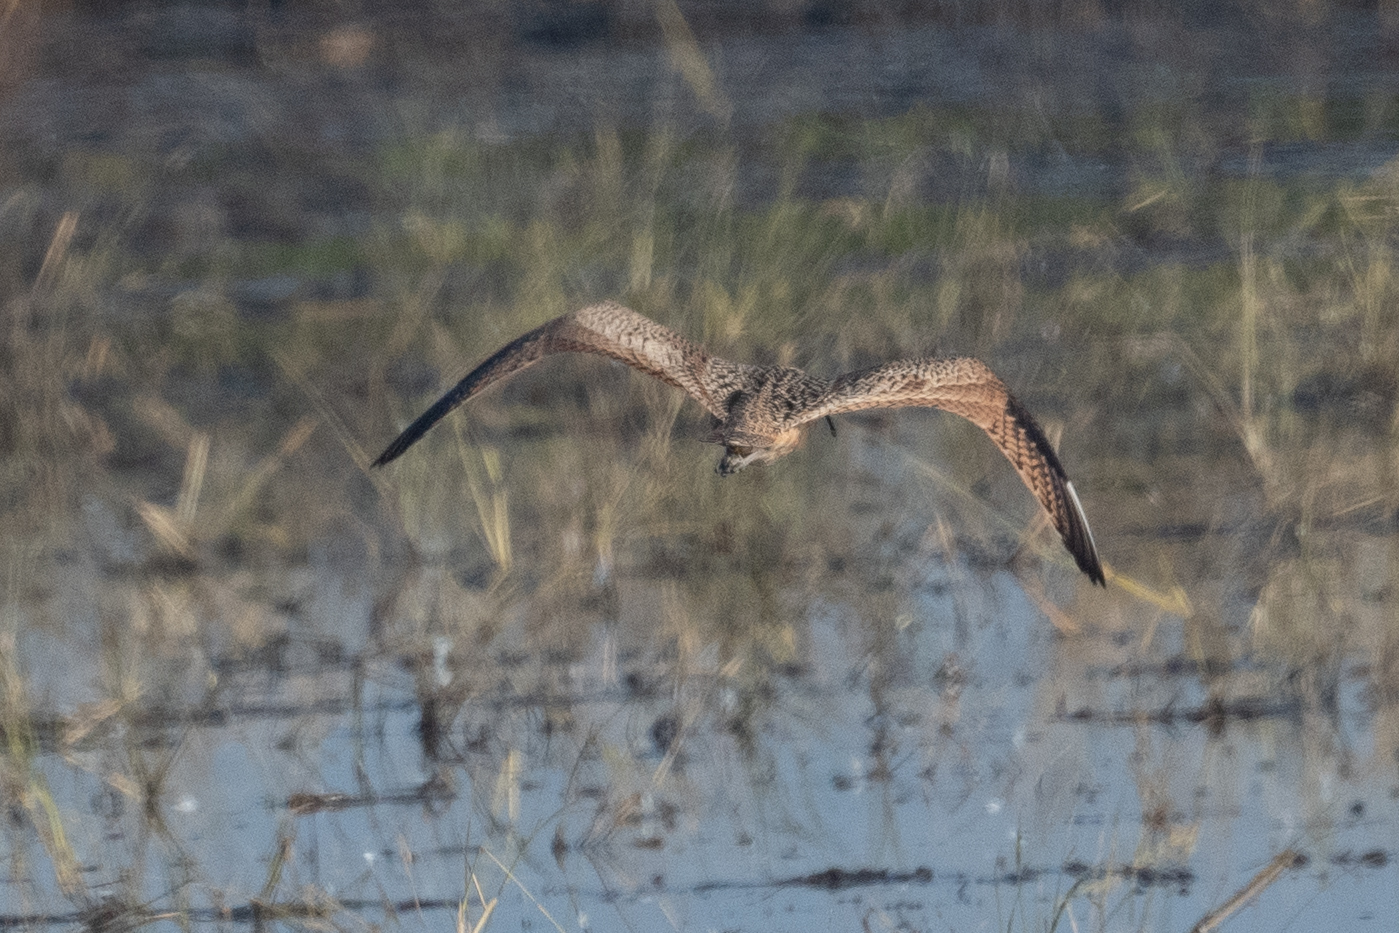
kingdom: Animalia
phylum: Chordata
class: Aves
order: Charadriiformes
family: Scolopacidae
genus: Numenius
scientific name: Numenius americanus
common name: Long-billed curlew
